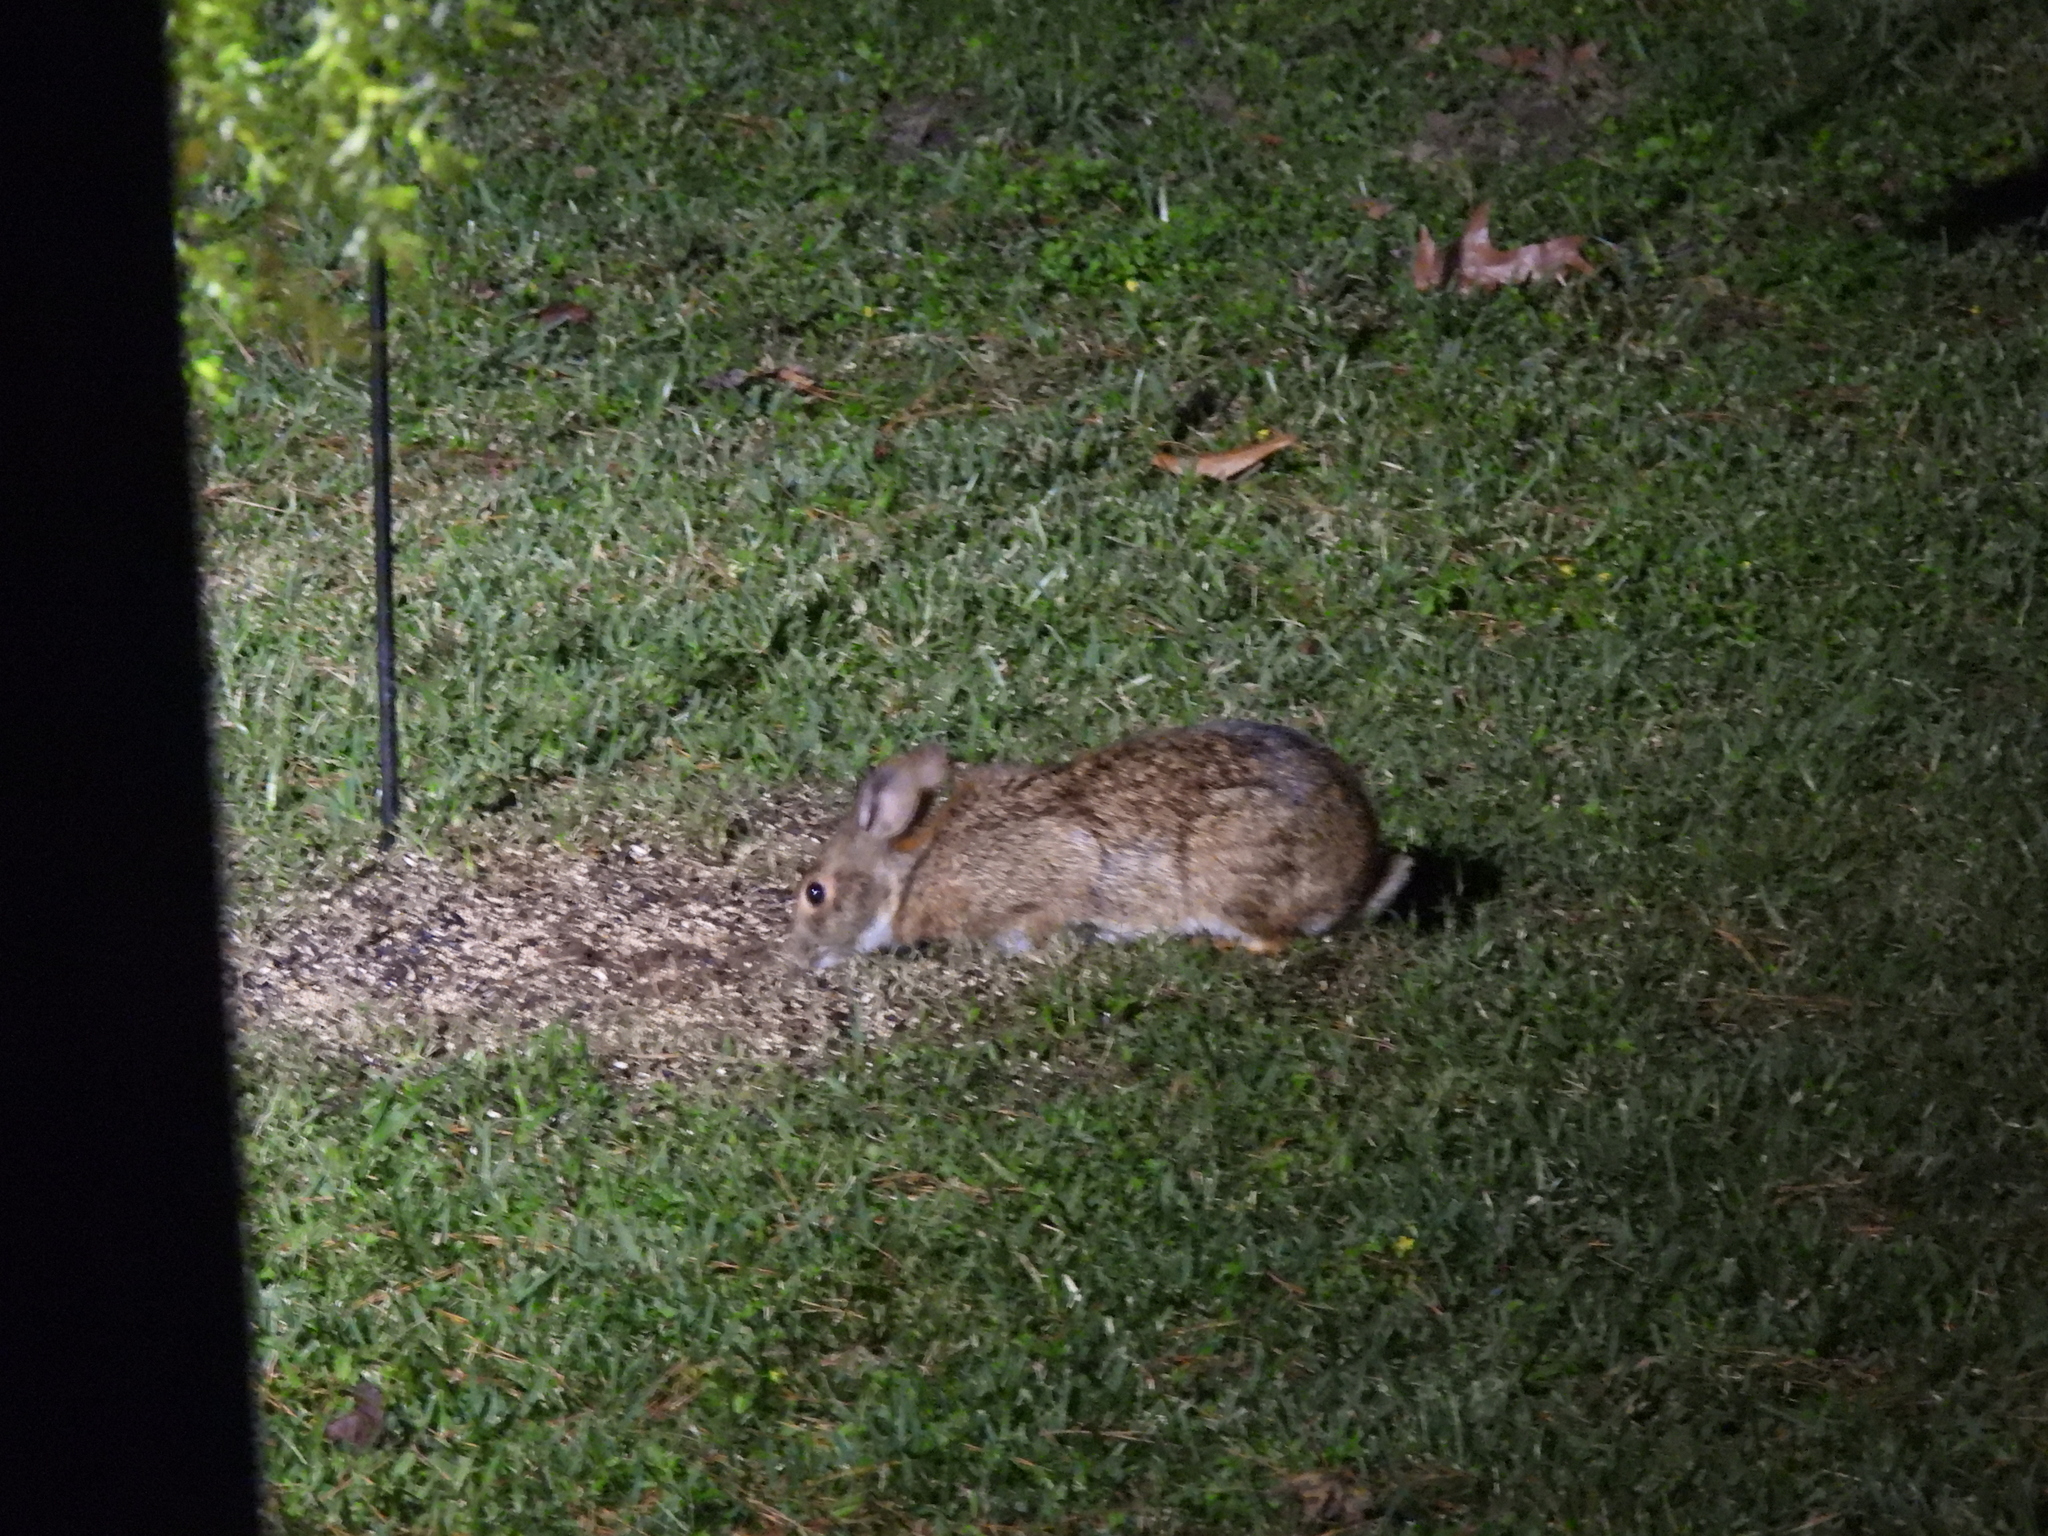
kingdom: Animalia
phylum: Chordata
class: Mammalia
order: Lagomorpha
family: Leporidae
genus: Sylvilagus
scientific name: Sylvilagus aquaticus
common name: Swamp rabbit
